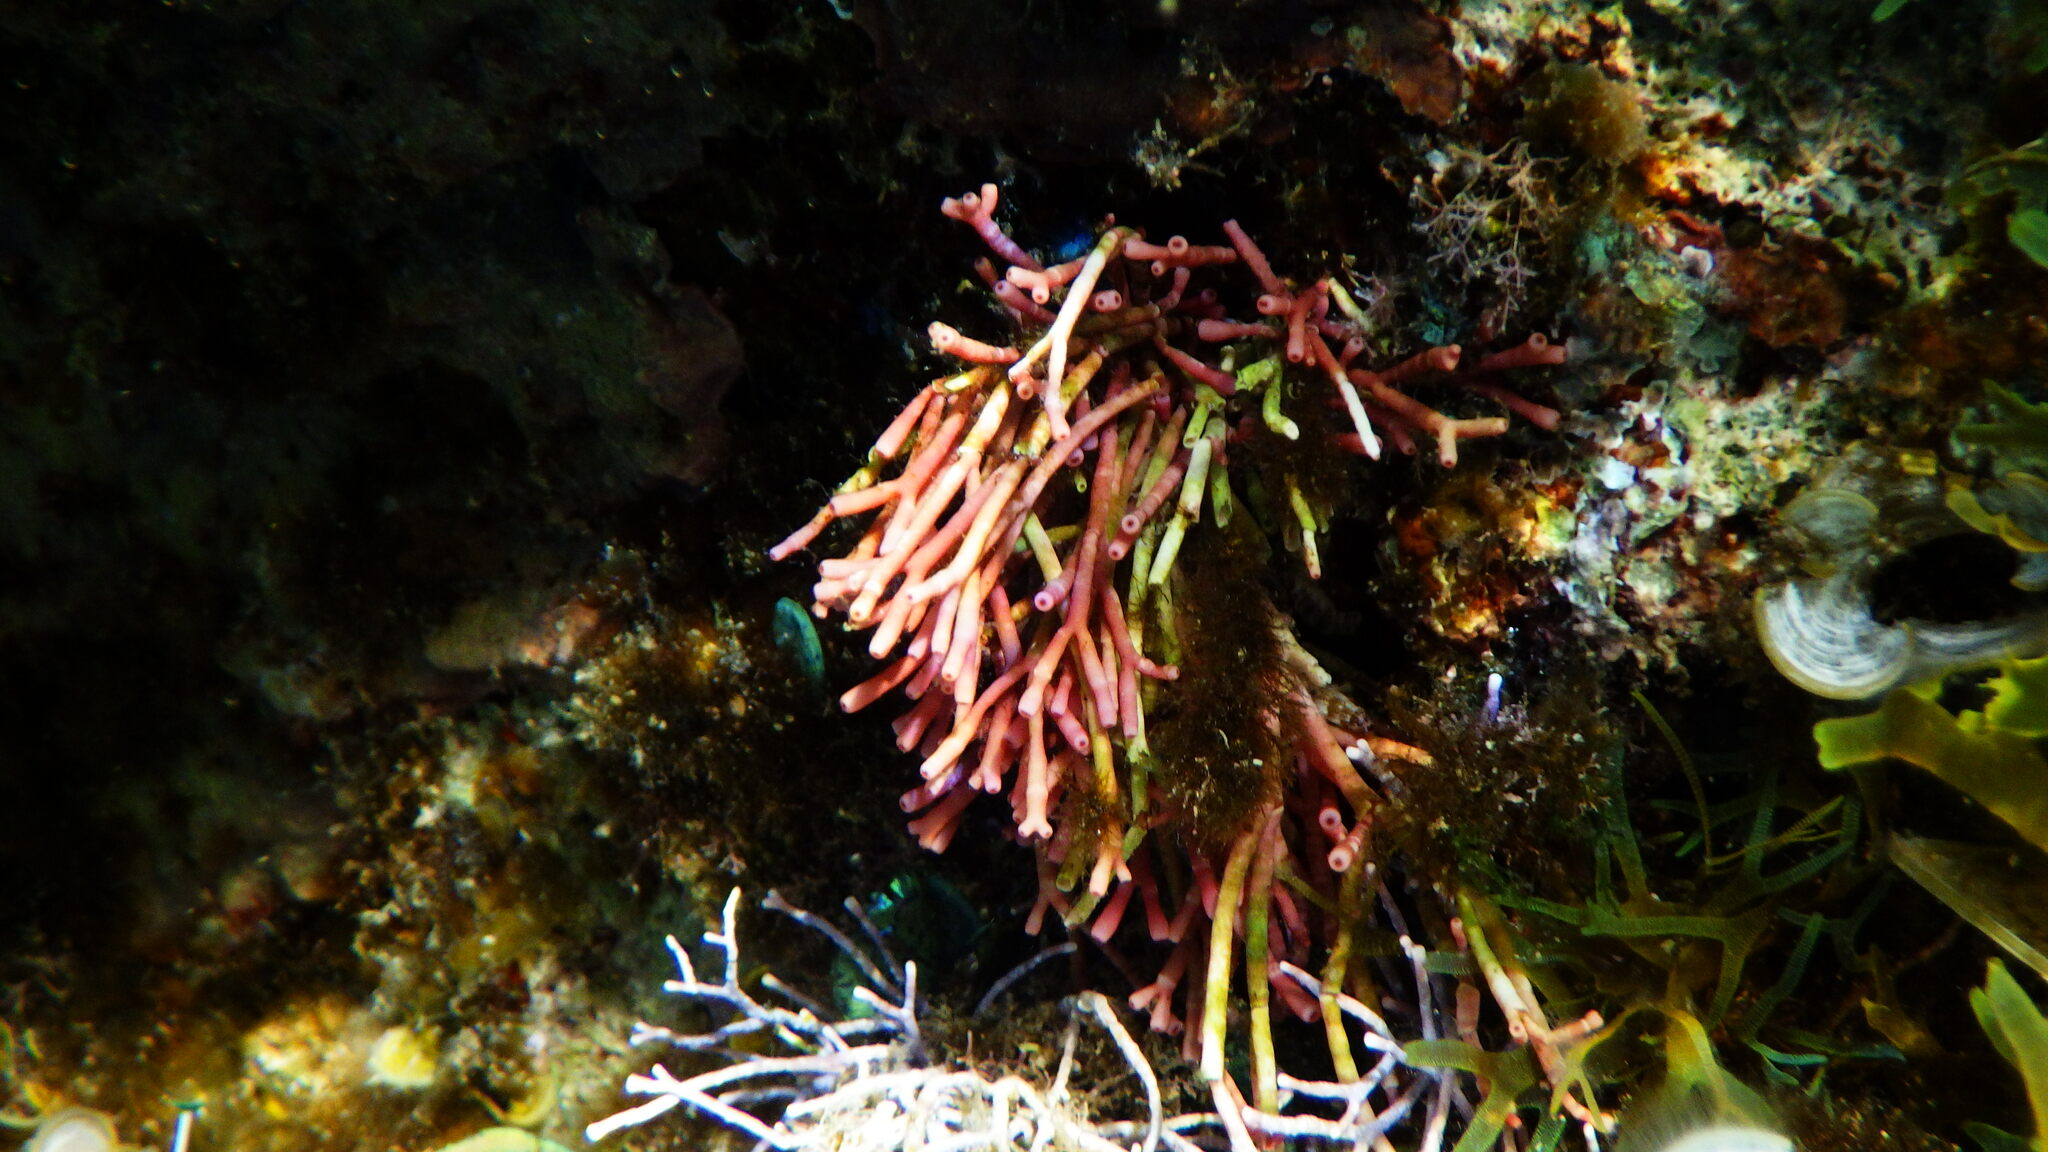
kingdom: Plantae
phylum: Rhodophyta
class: Florideophyceae
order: Nemaliales
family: Galaxauraceae
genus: Tricleocarpa
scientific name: Tricleocarpa fragilis
